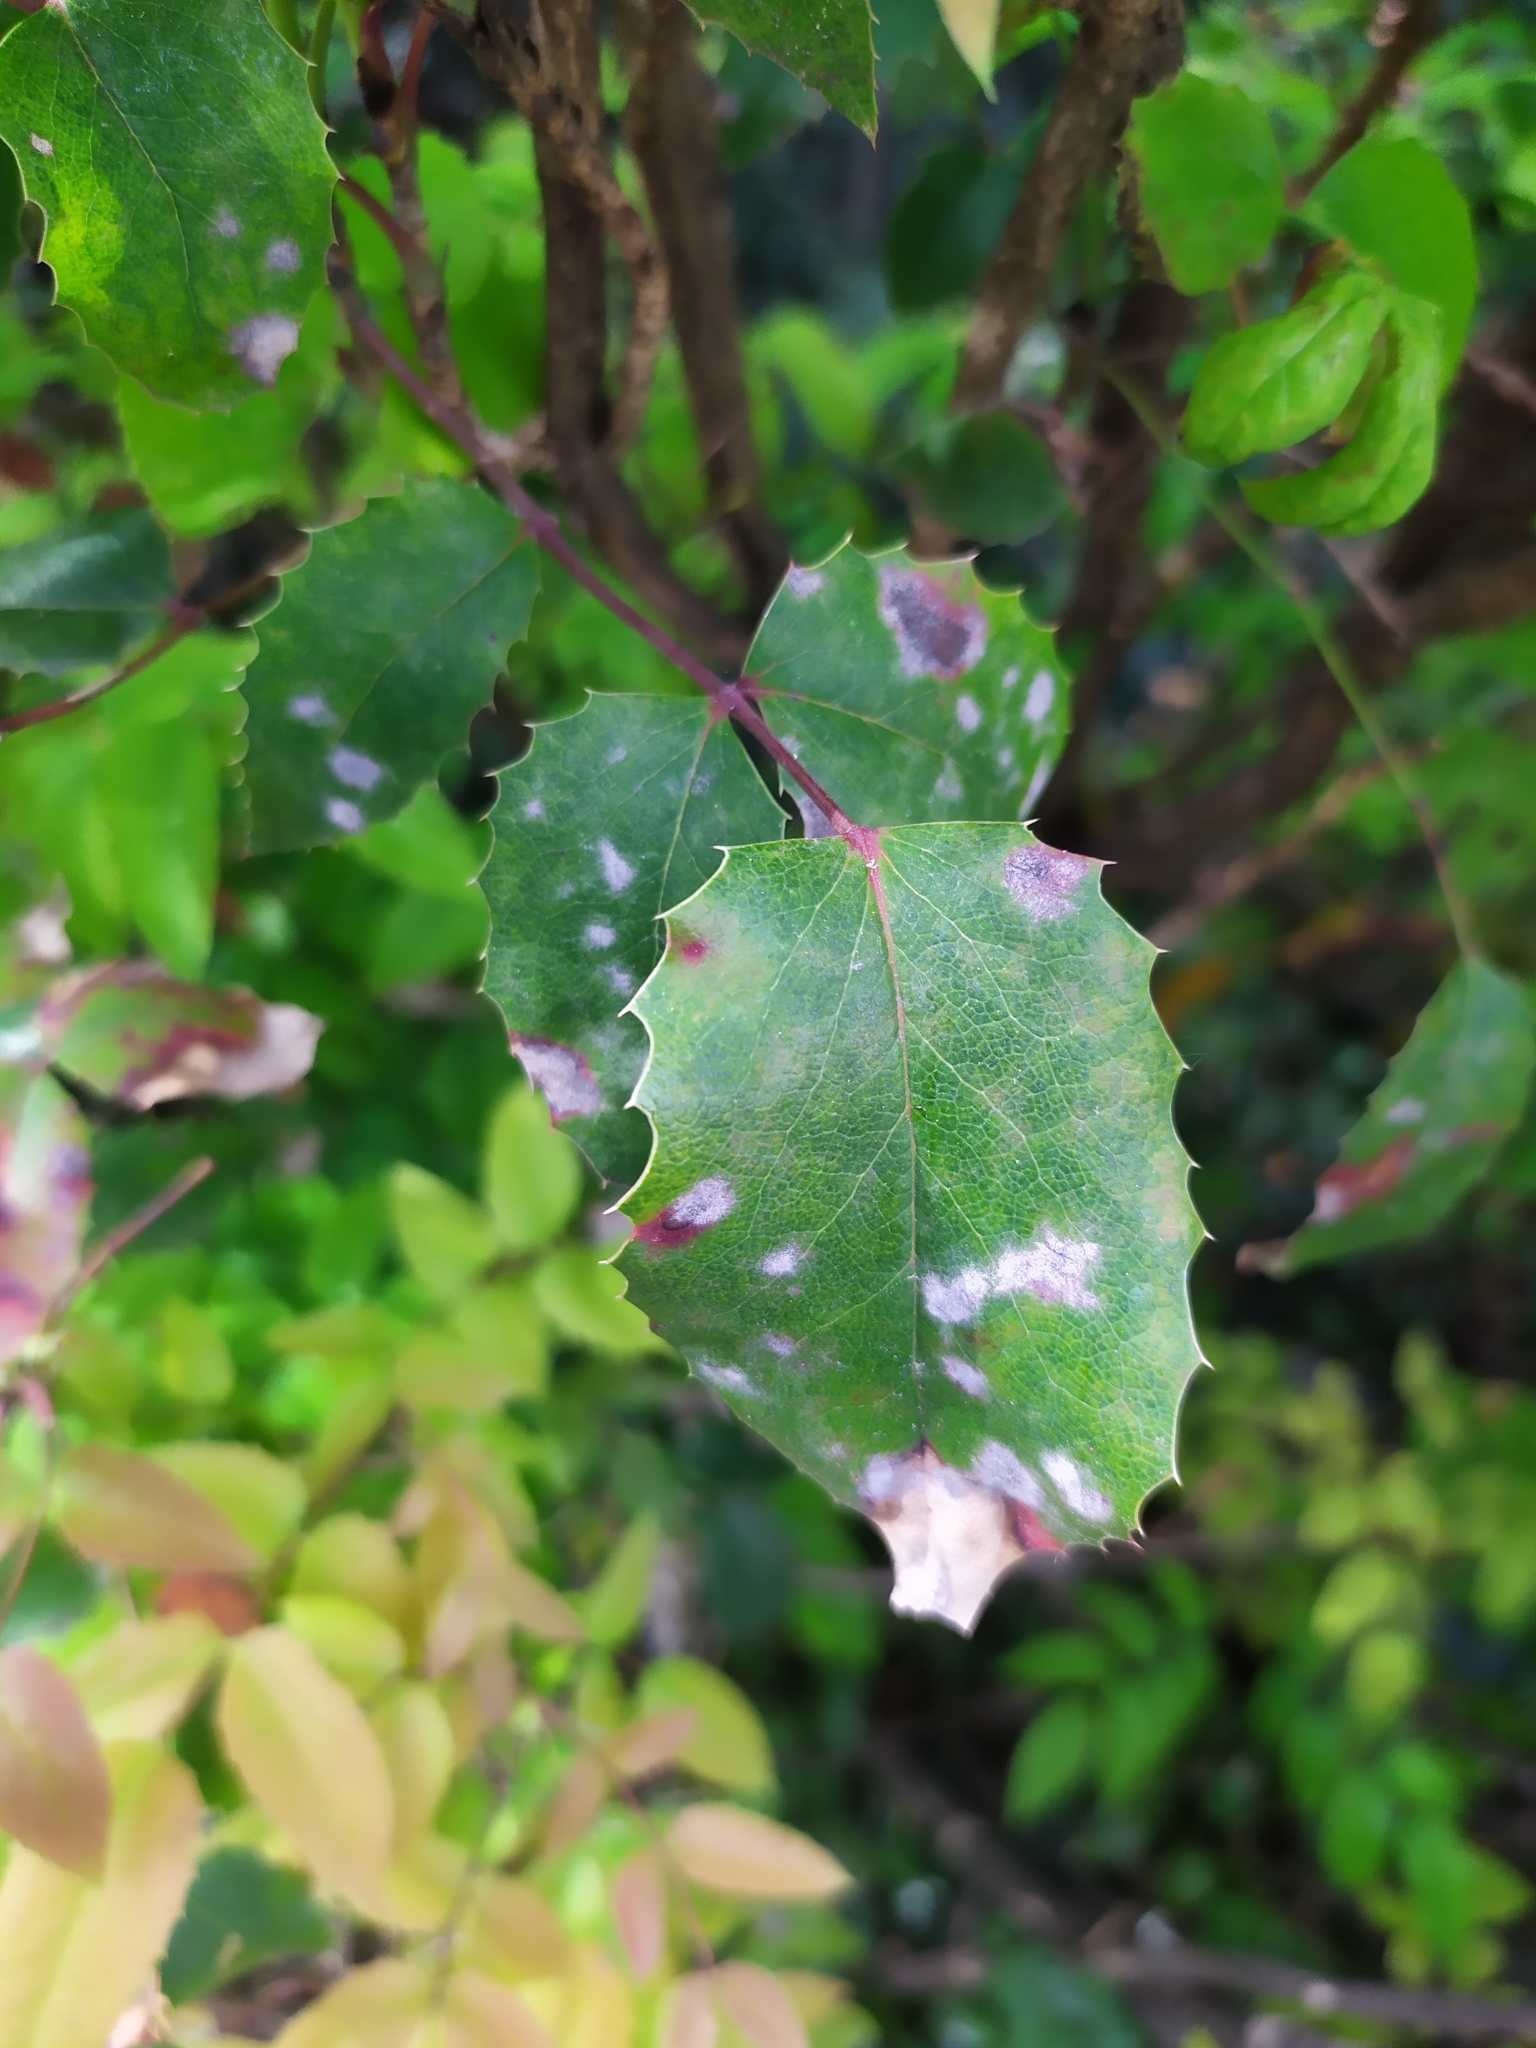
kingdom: Fungi
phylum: Ascomycota
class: Leotiomycetes
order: Helotiales
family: Erysiphaceae
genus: Erysiphe
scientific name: Erysiphe berberidis
